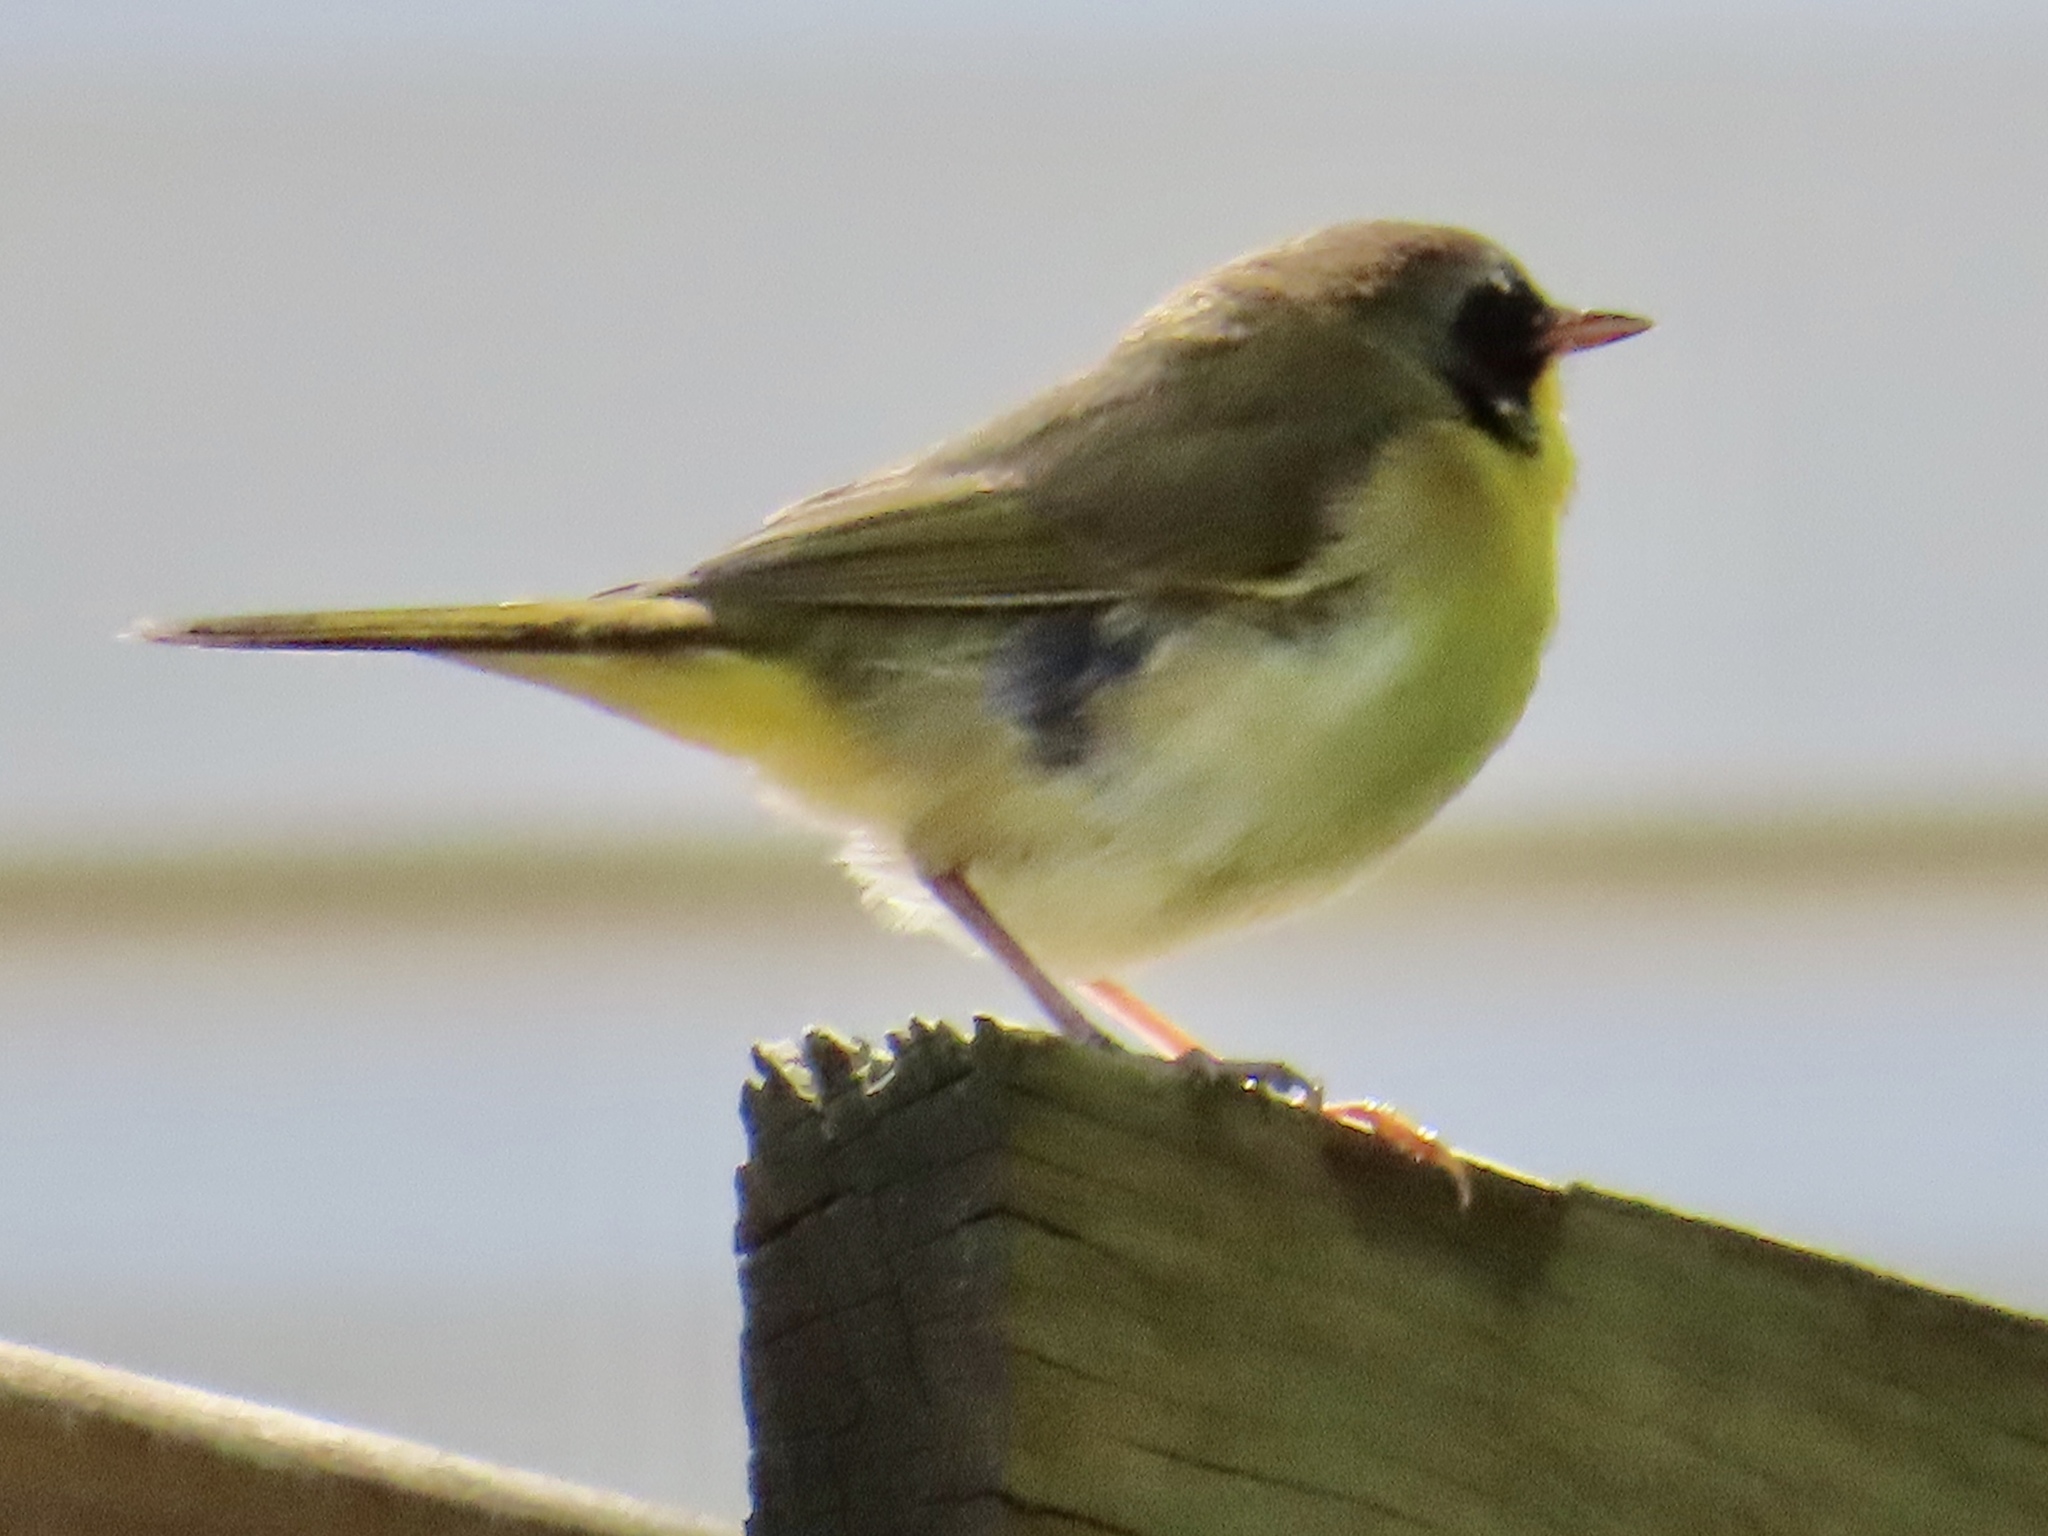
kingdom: Animalia
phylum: Chordata
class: Aves
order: Passeriformes
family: Parulidae
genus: Geothlypis
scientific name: Geothlypis trichas
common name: Common yellowthroat
